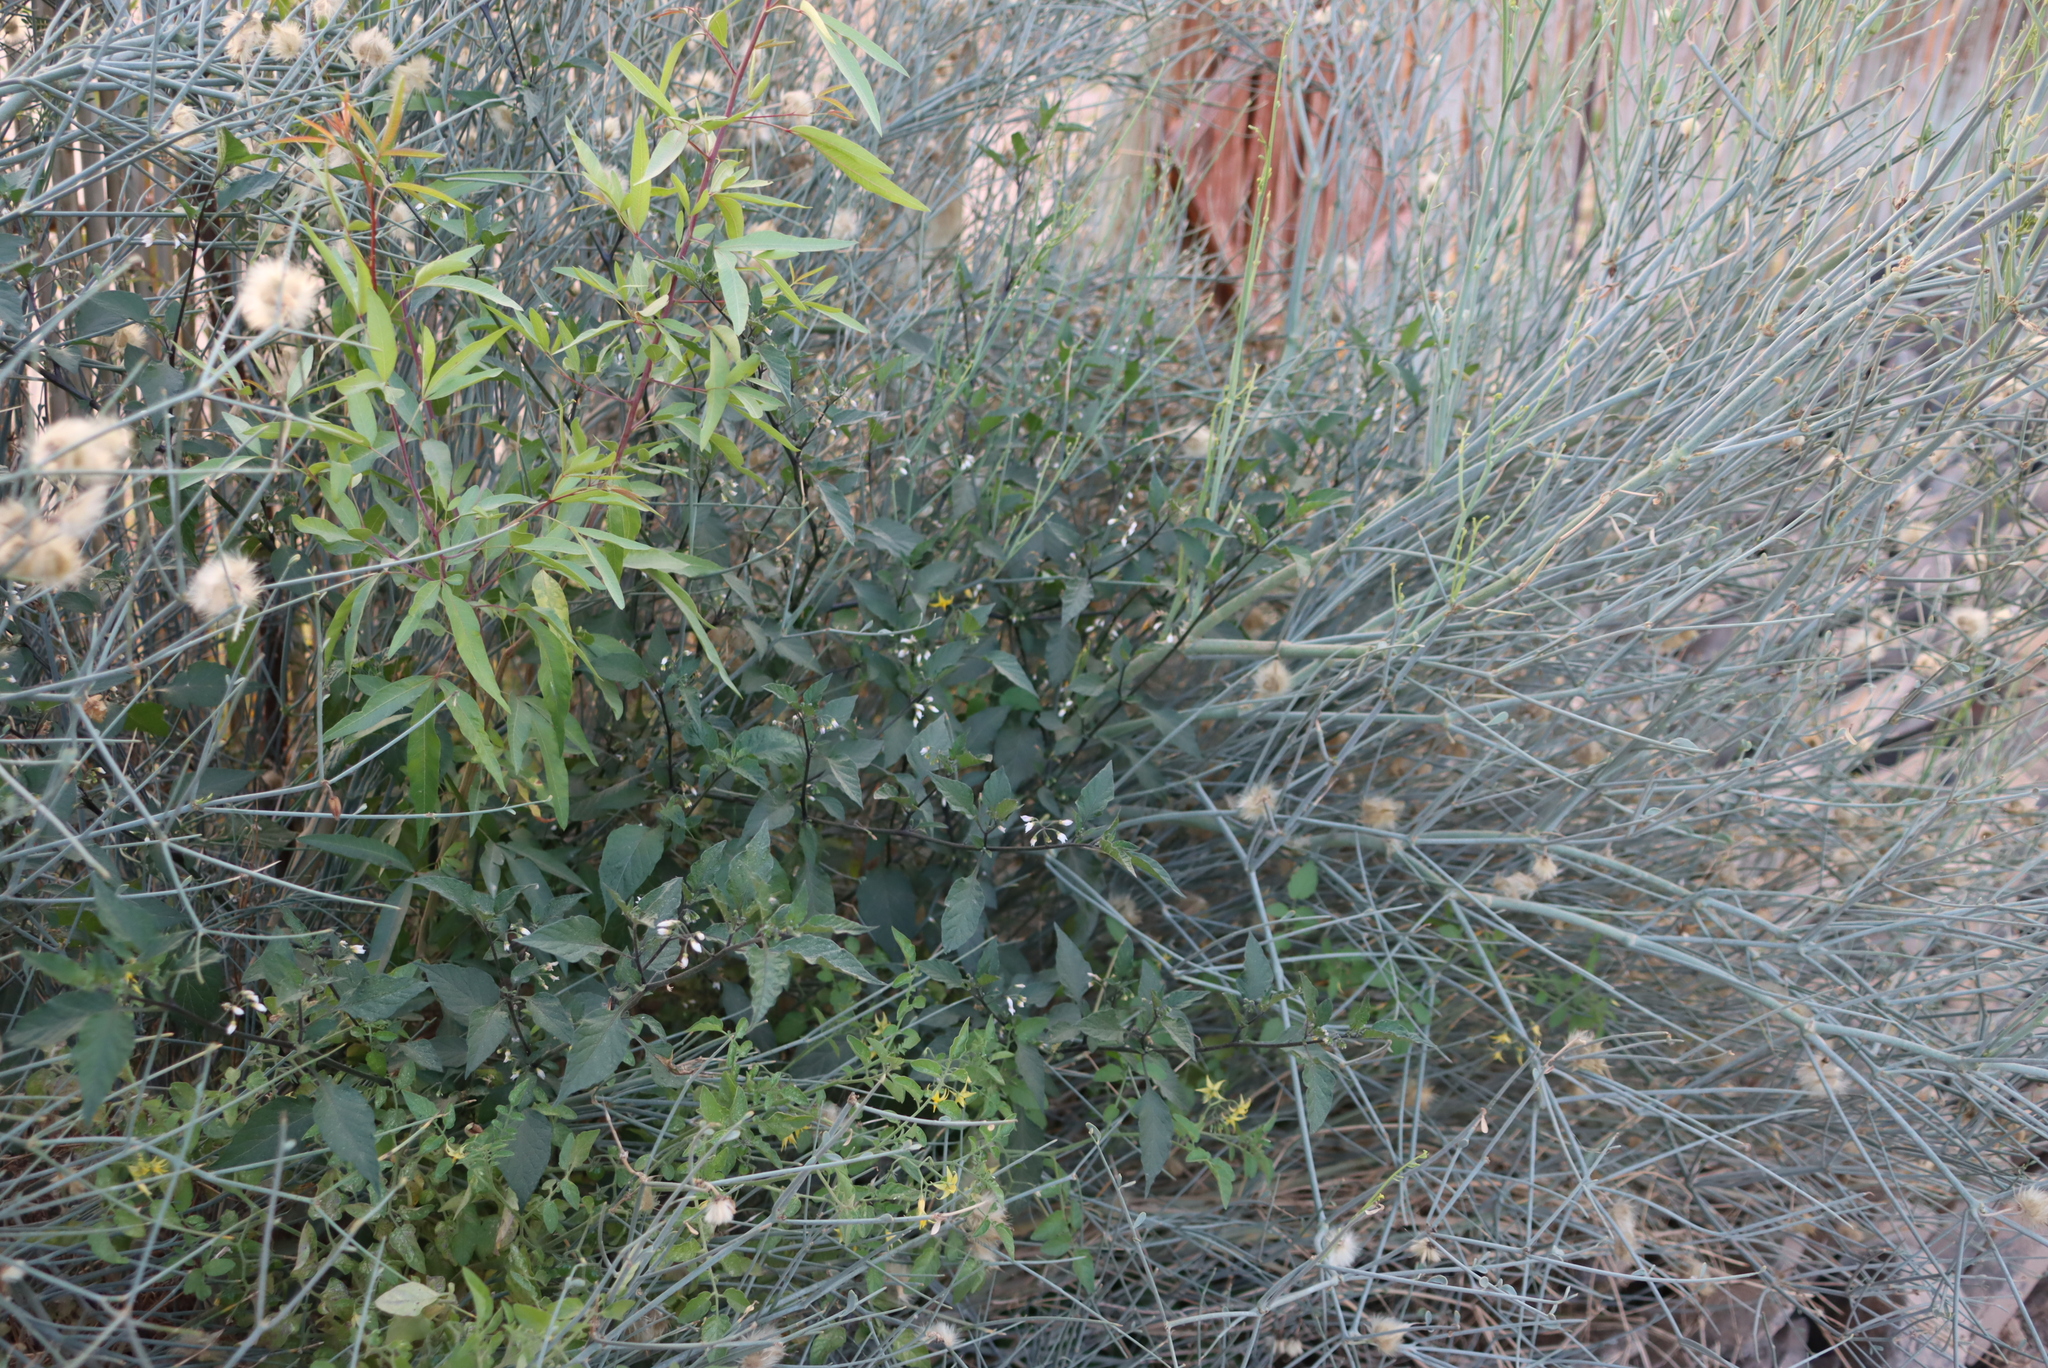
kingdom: Plantae
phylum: Tracheophyta
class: Magnoliopsida
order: Solanales
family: Solanaceae
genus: Solanum
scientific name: Solanum nigrum
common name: Black nightshade
